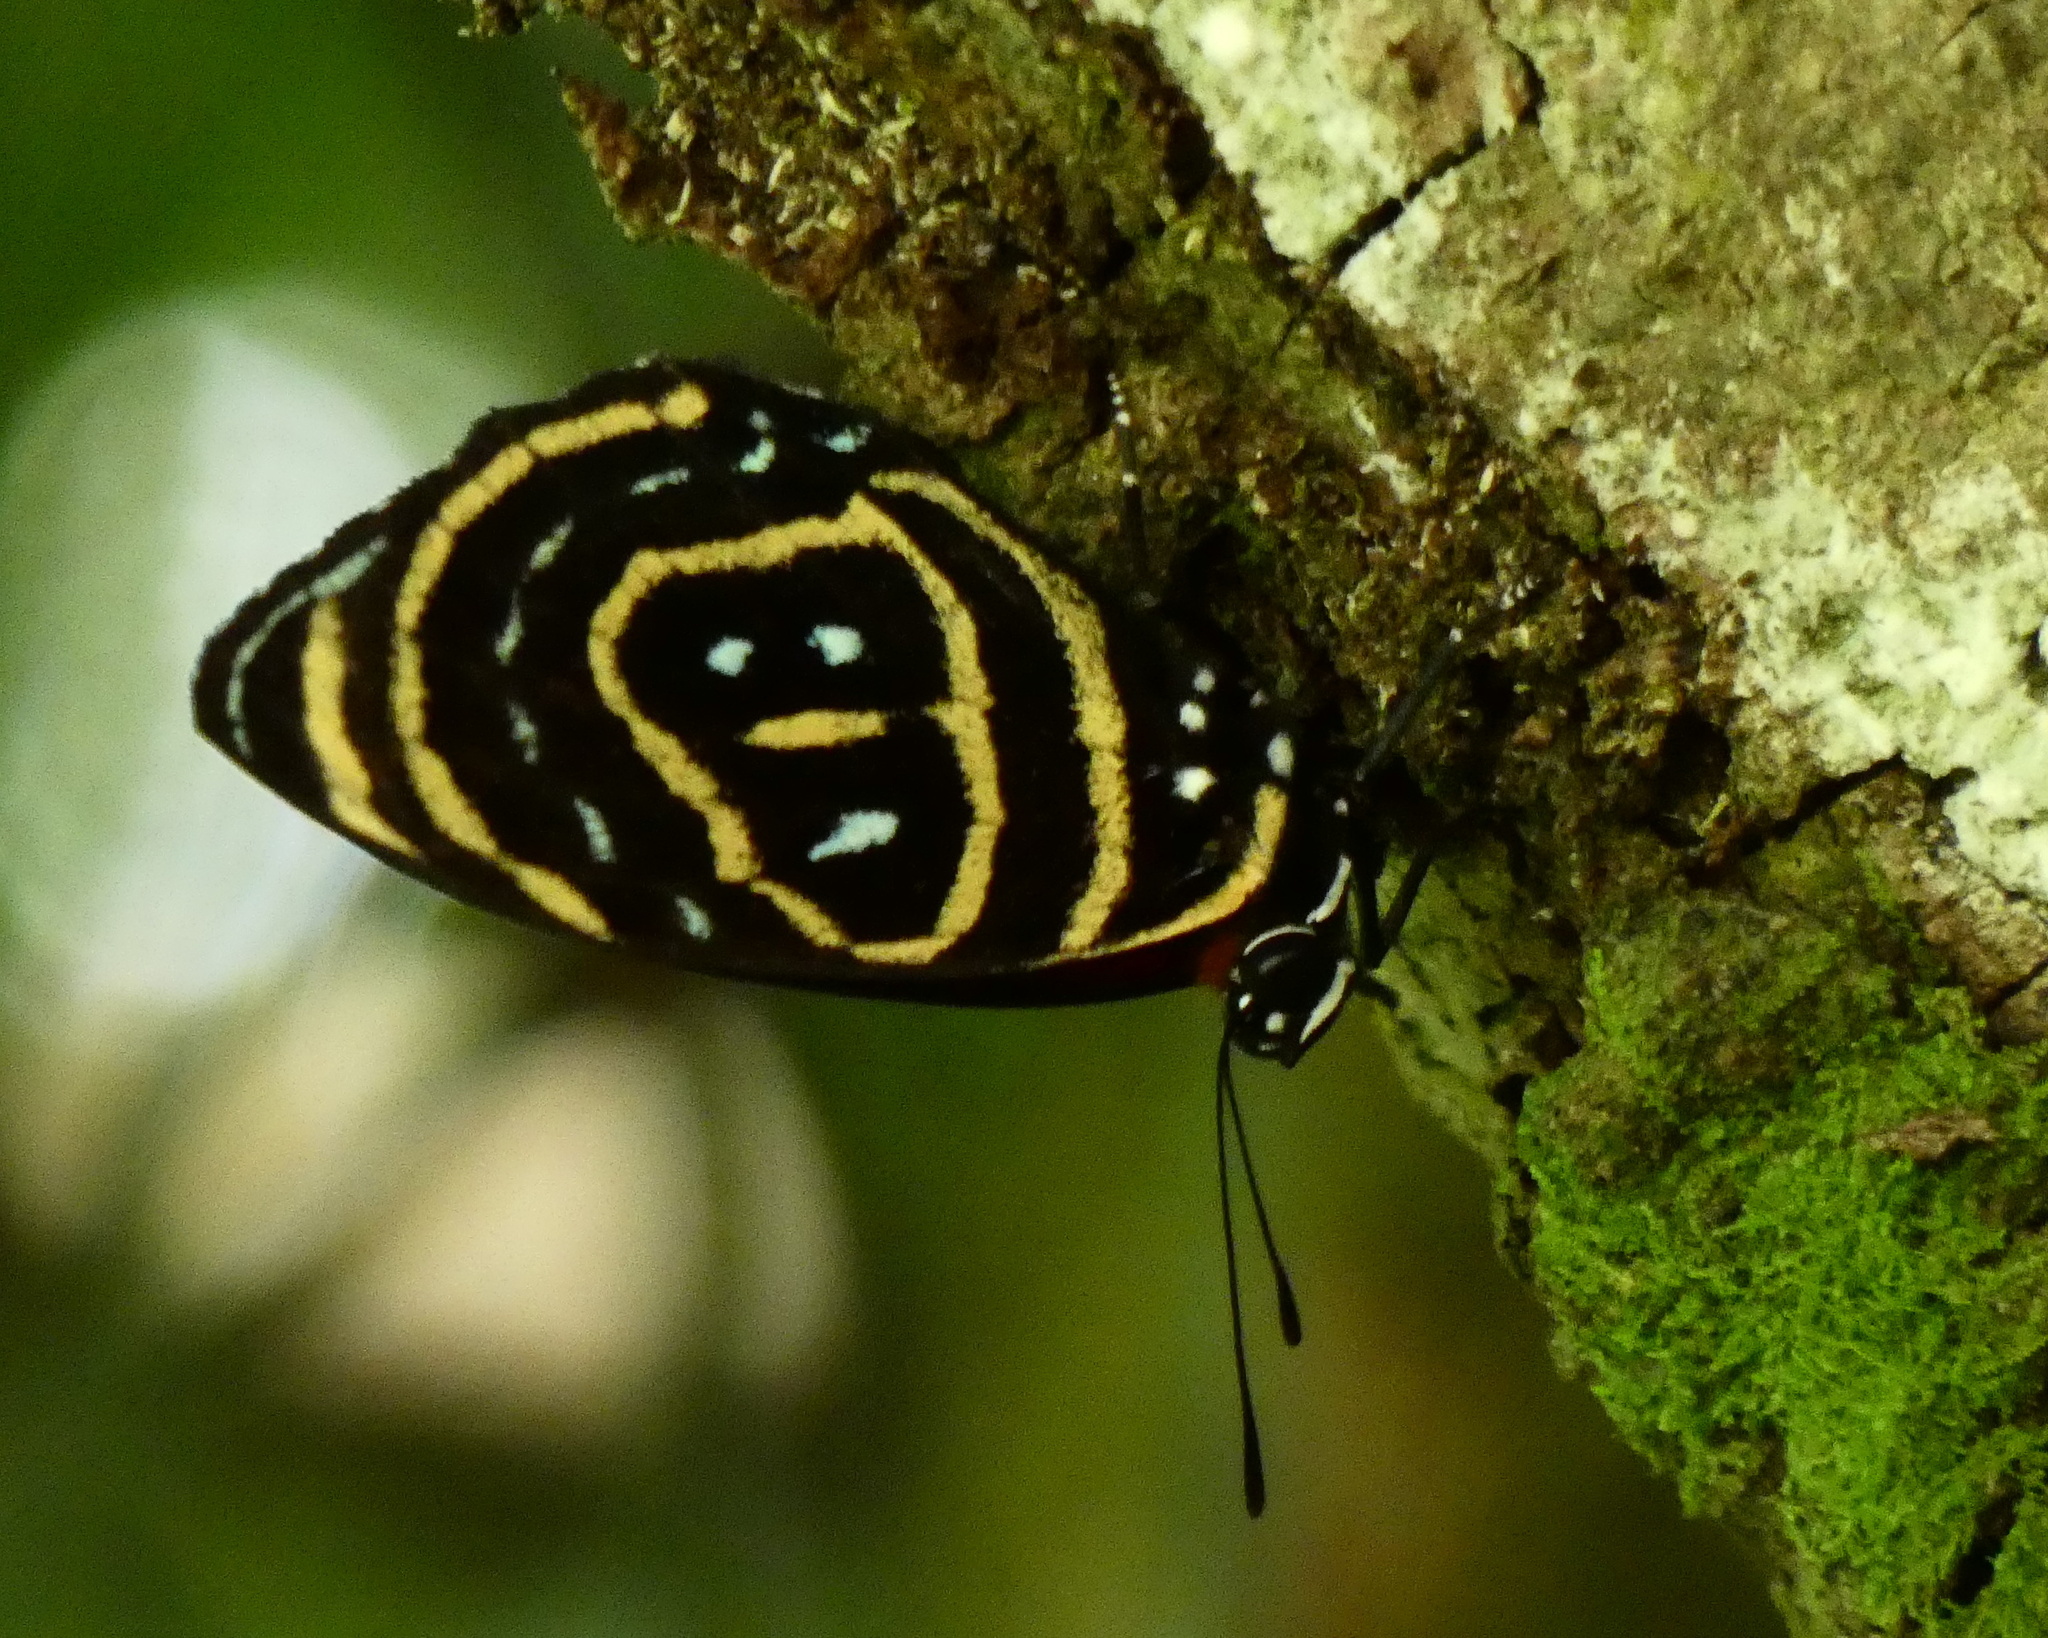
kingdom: Animalia
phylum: Arthropoda
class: Insecta
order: Lepidoptera
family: Nymphalidae
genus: Catagramma
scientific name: Catagramma astarte
